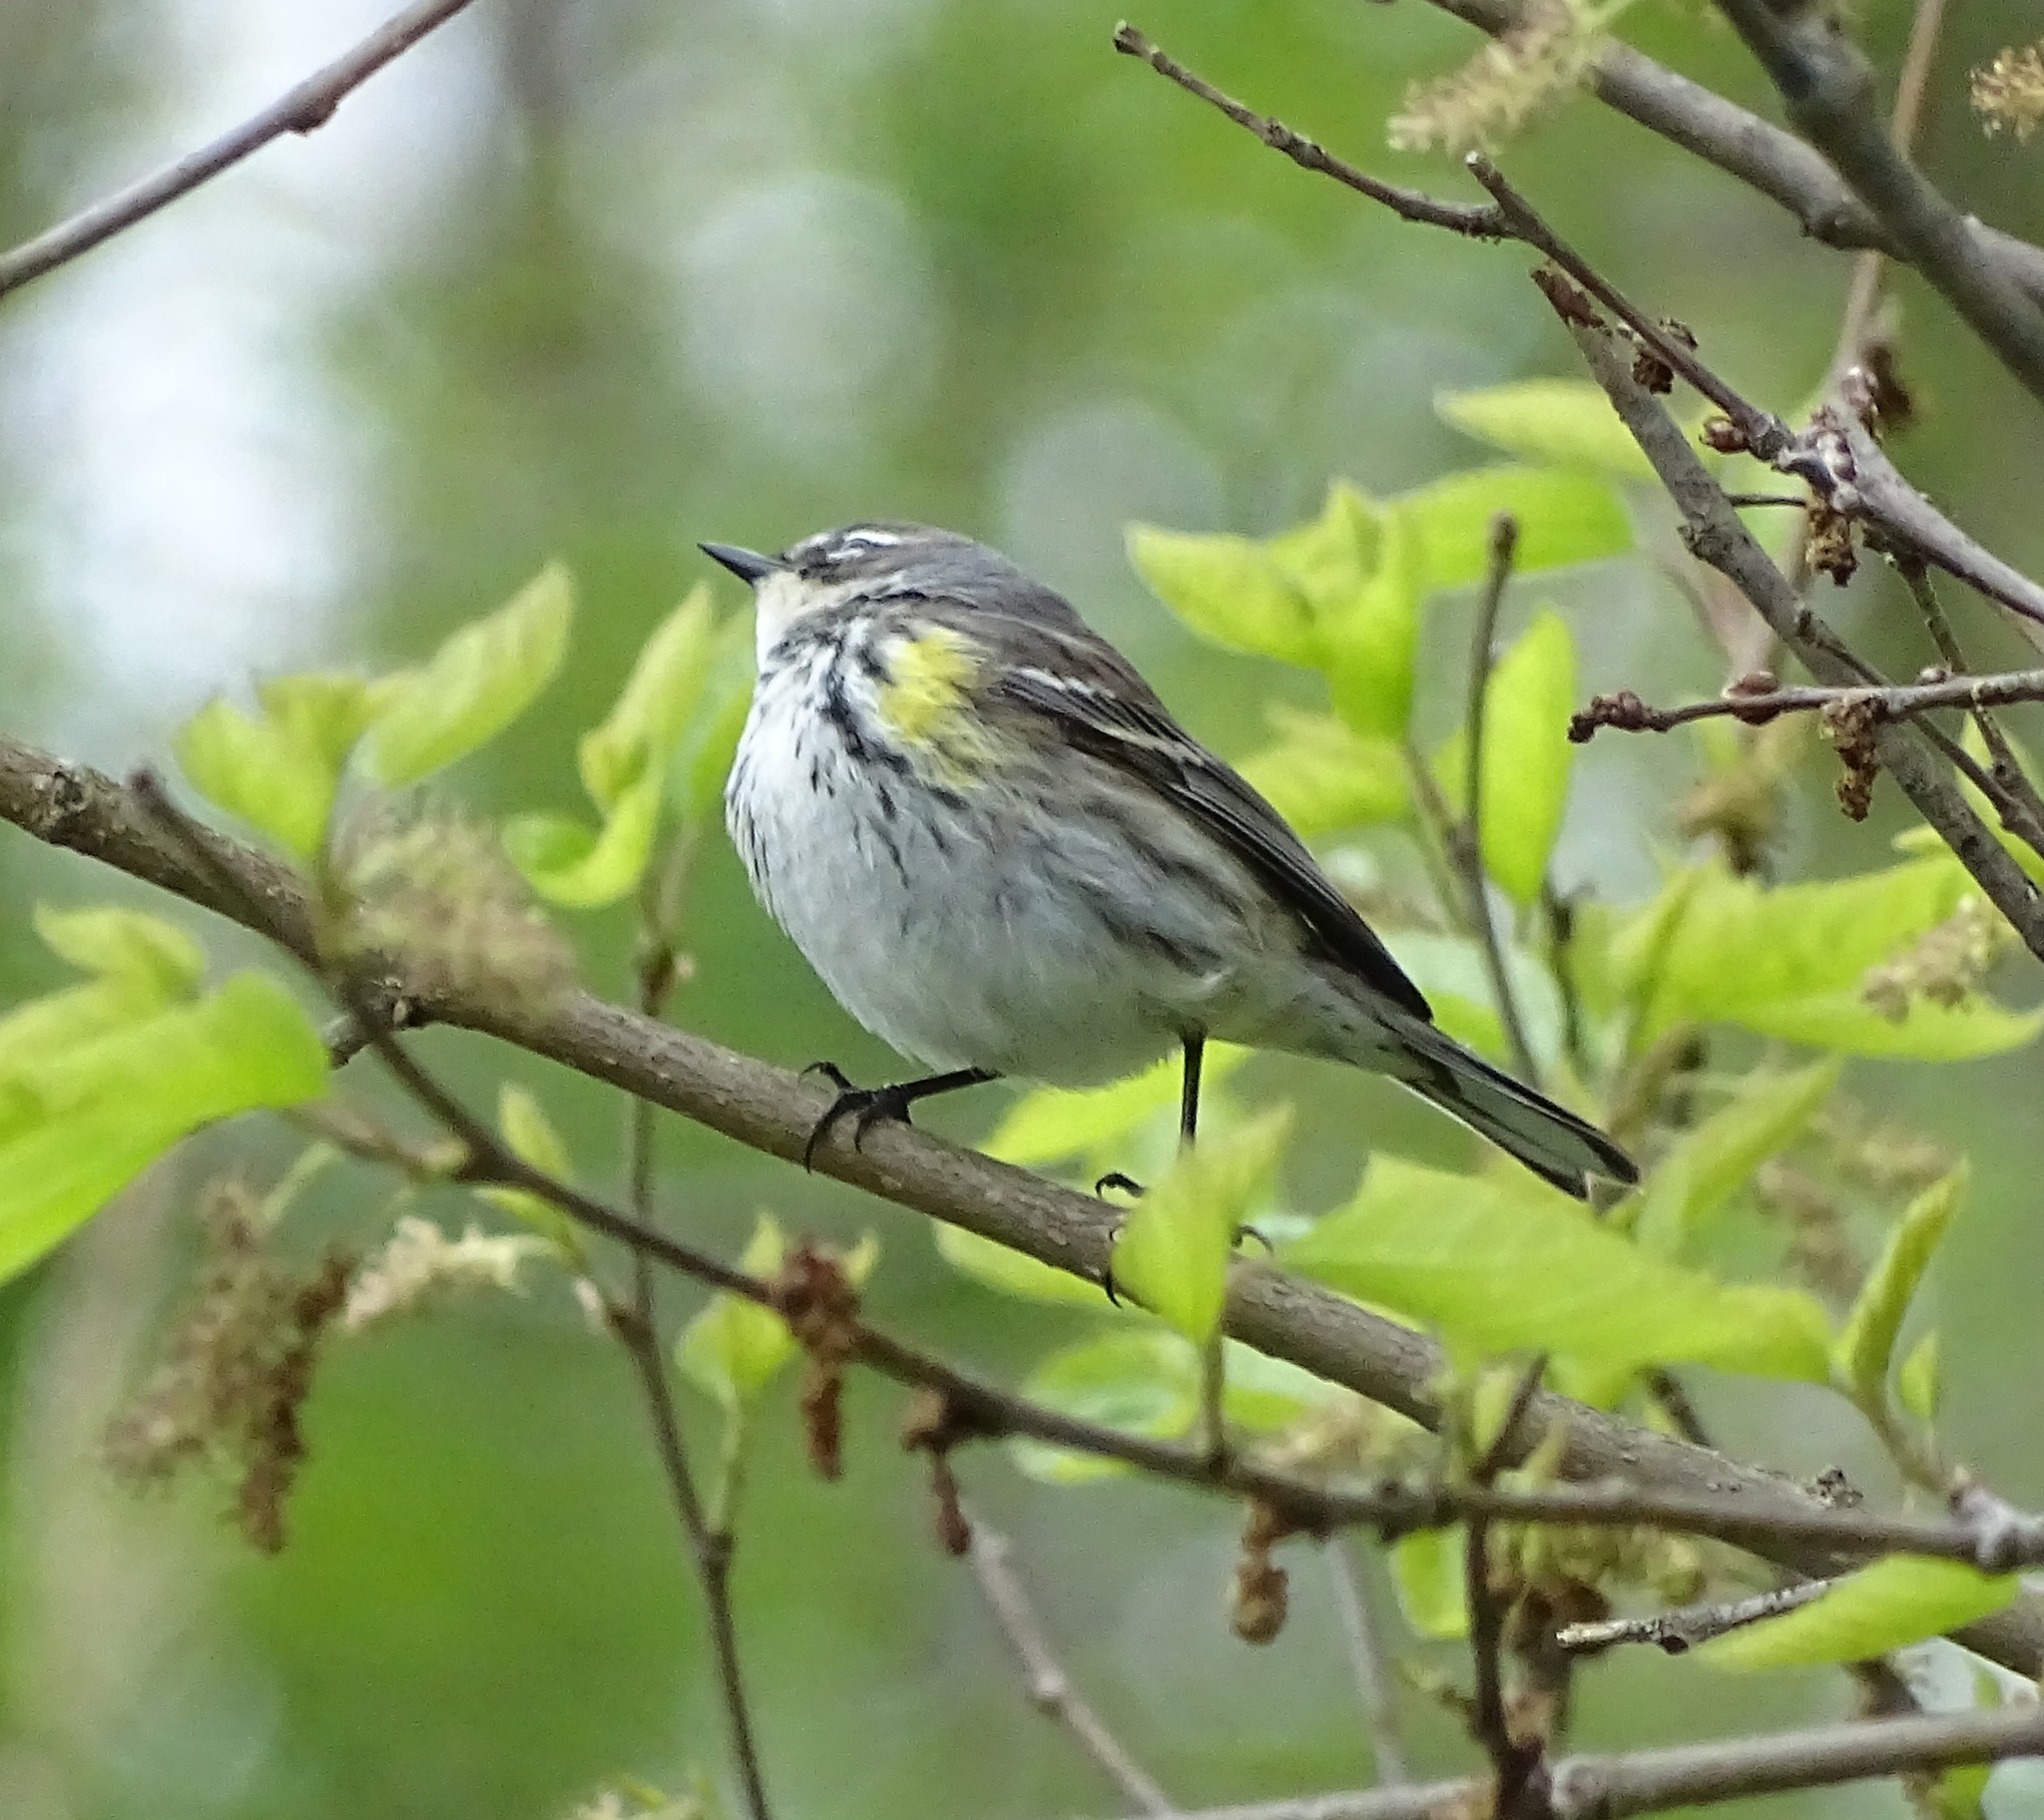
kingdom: Animalia
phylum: Chordata
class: Aves
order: Passeriformes
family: Parulidae
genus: Setophaga
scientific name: Setophaga coronata
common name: Myrtle warbler
